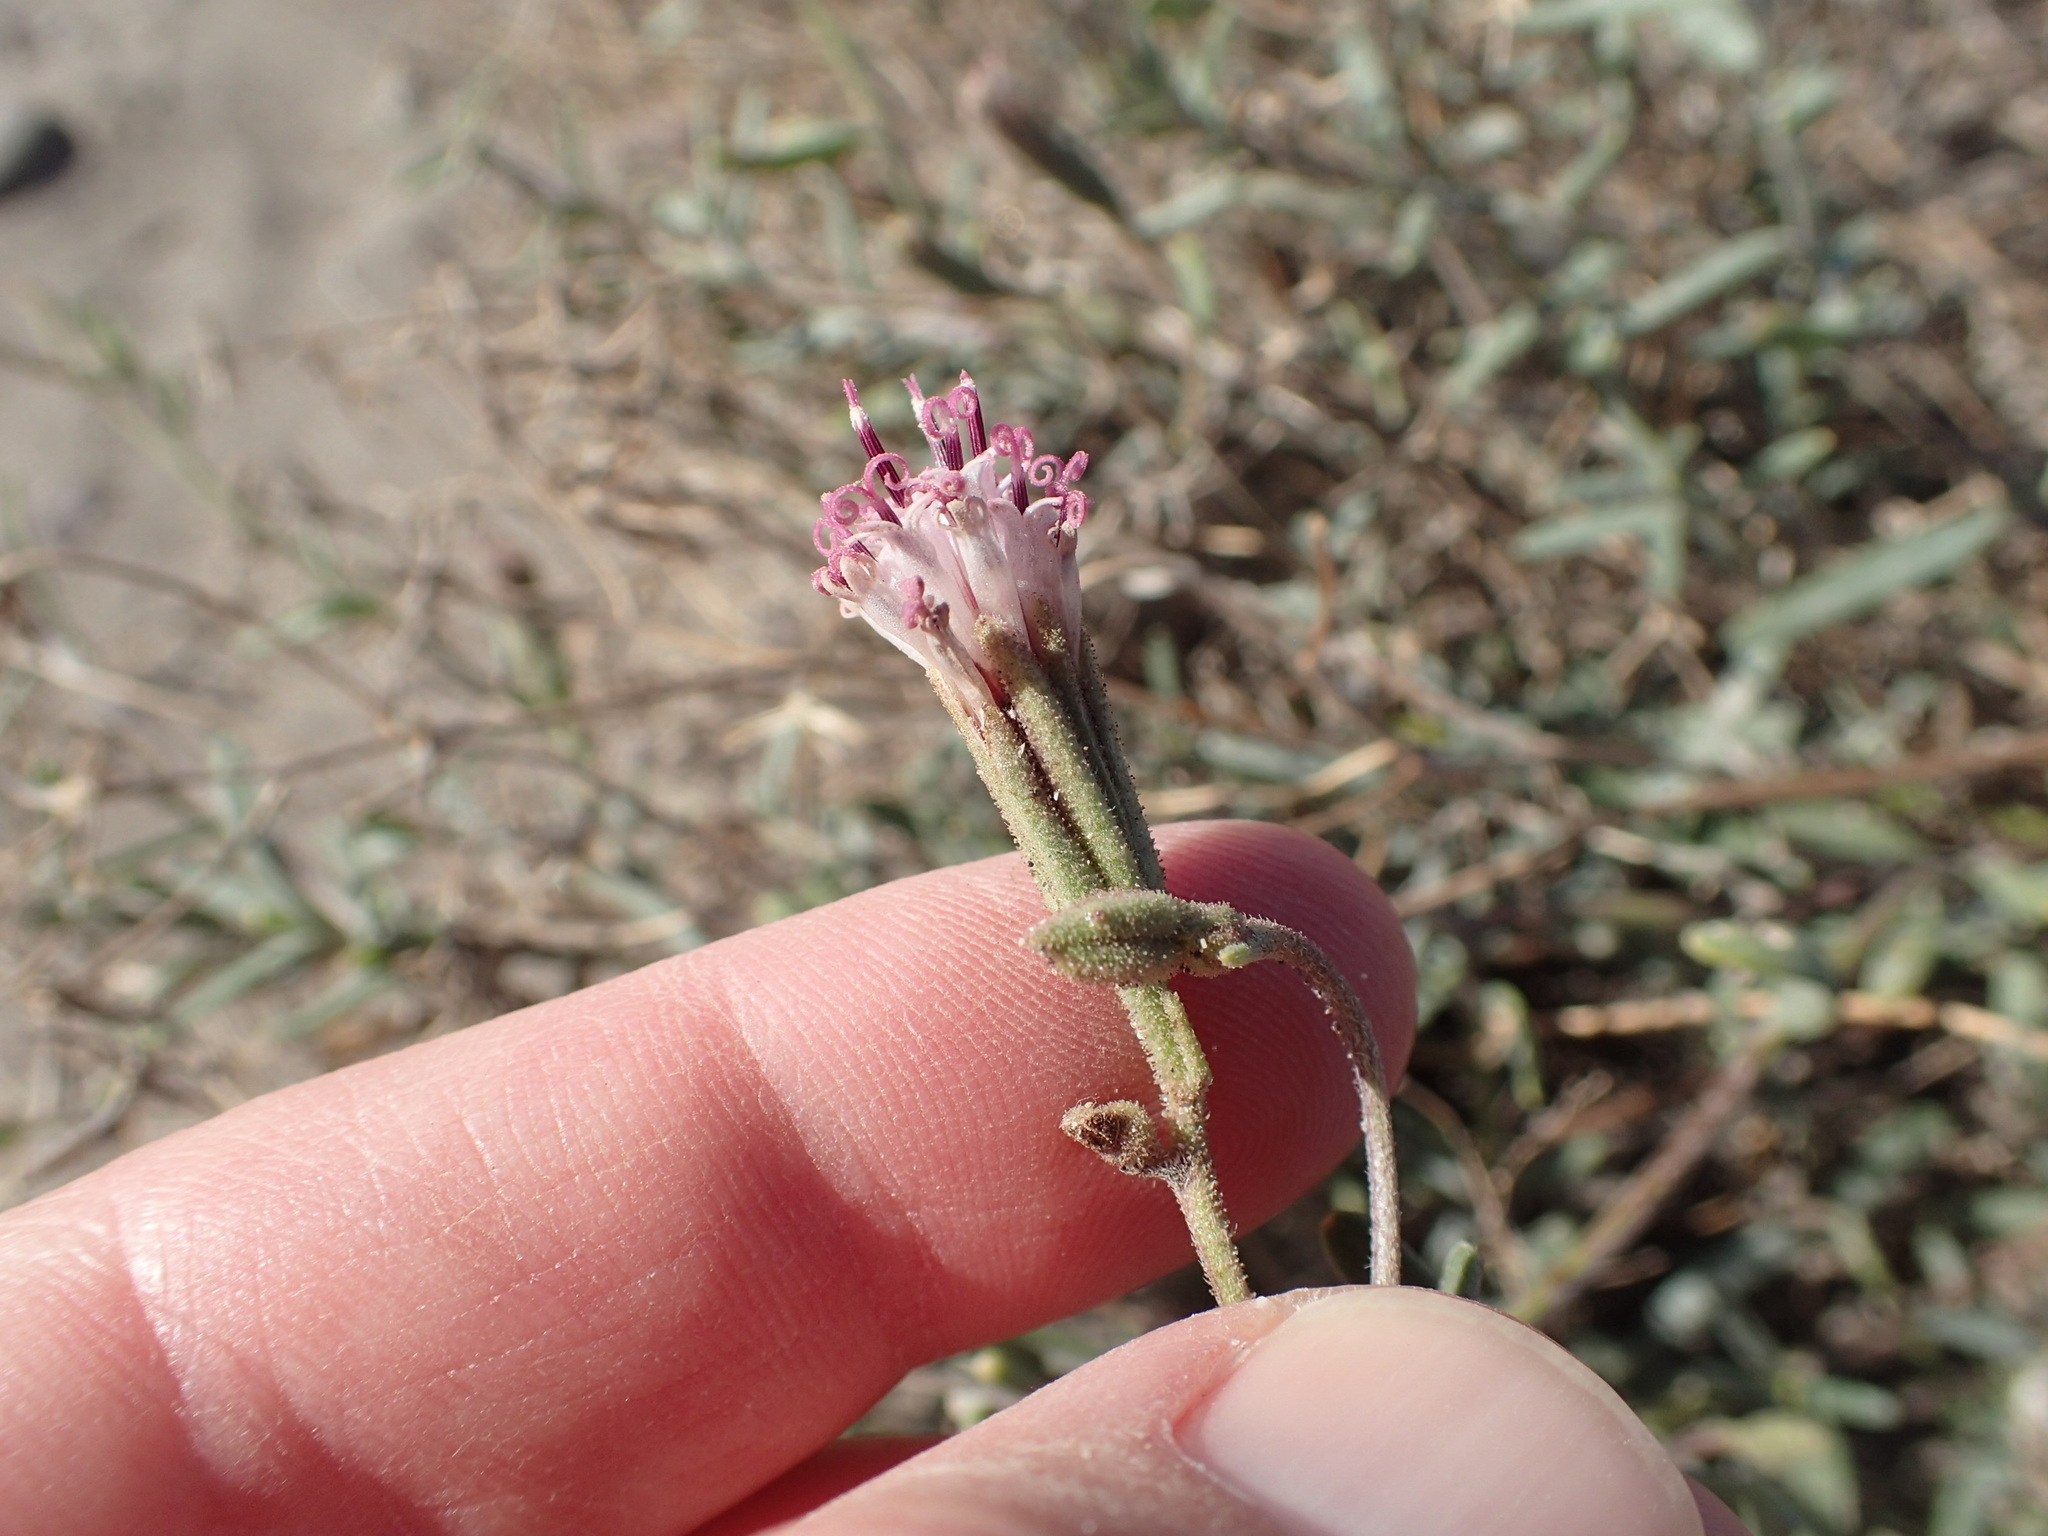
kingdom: Plantae
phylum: Tracheophyta
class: Magnoliopsida
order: Asterales
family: Asteraceae
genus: Palafoxia
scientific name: Palafoxia linearis
